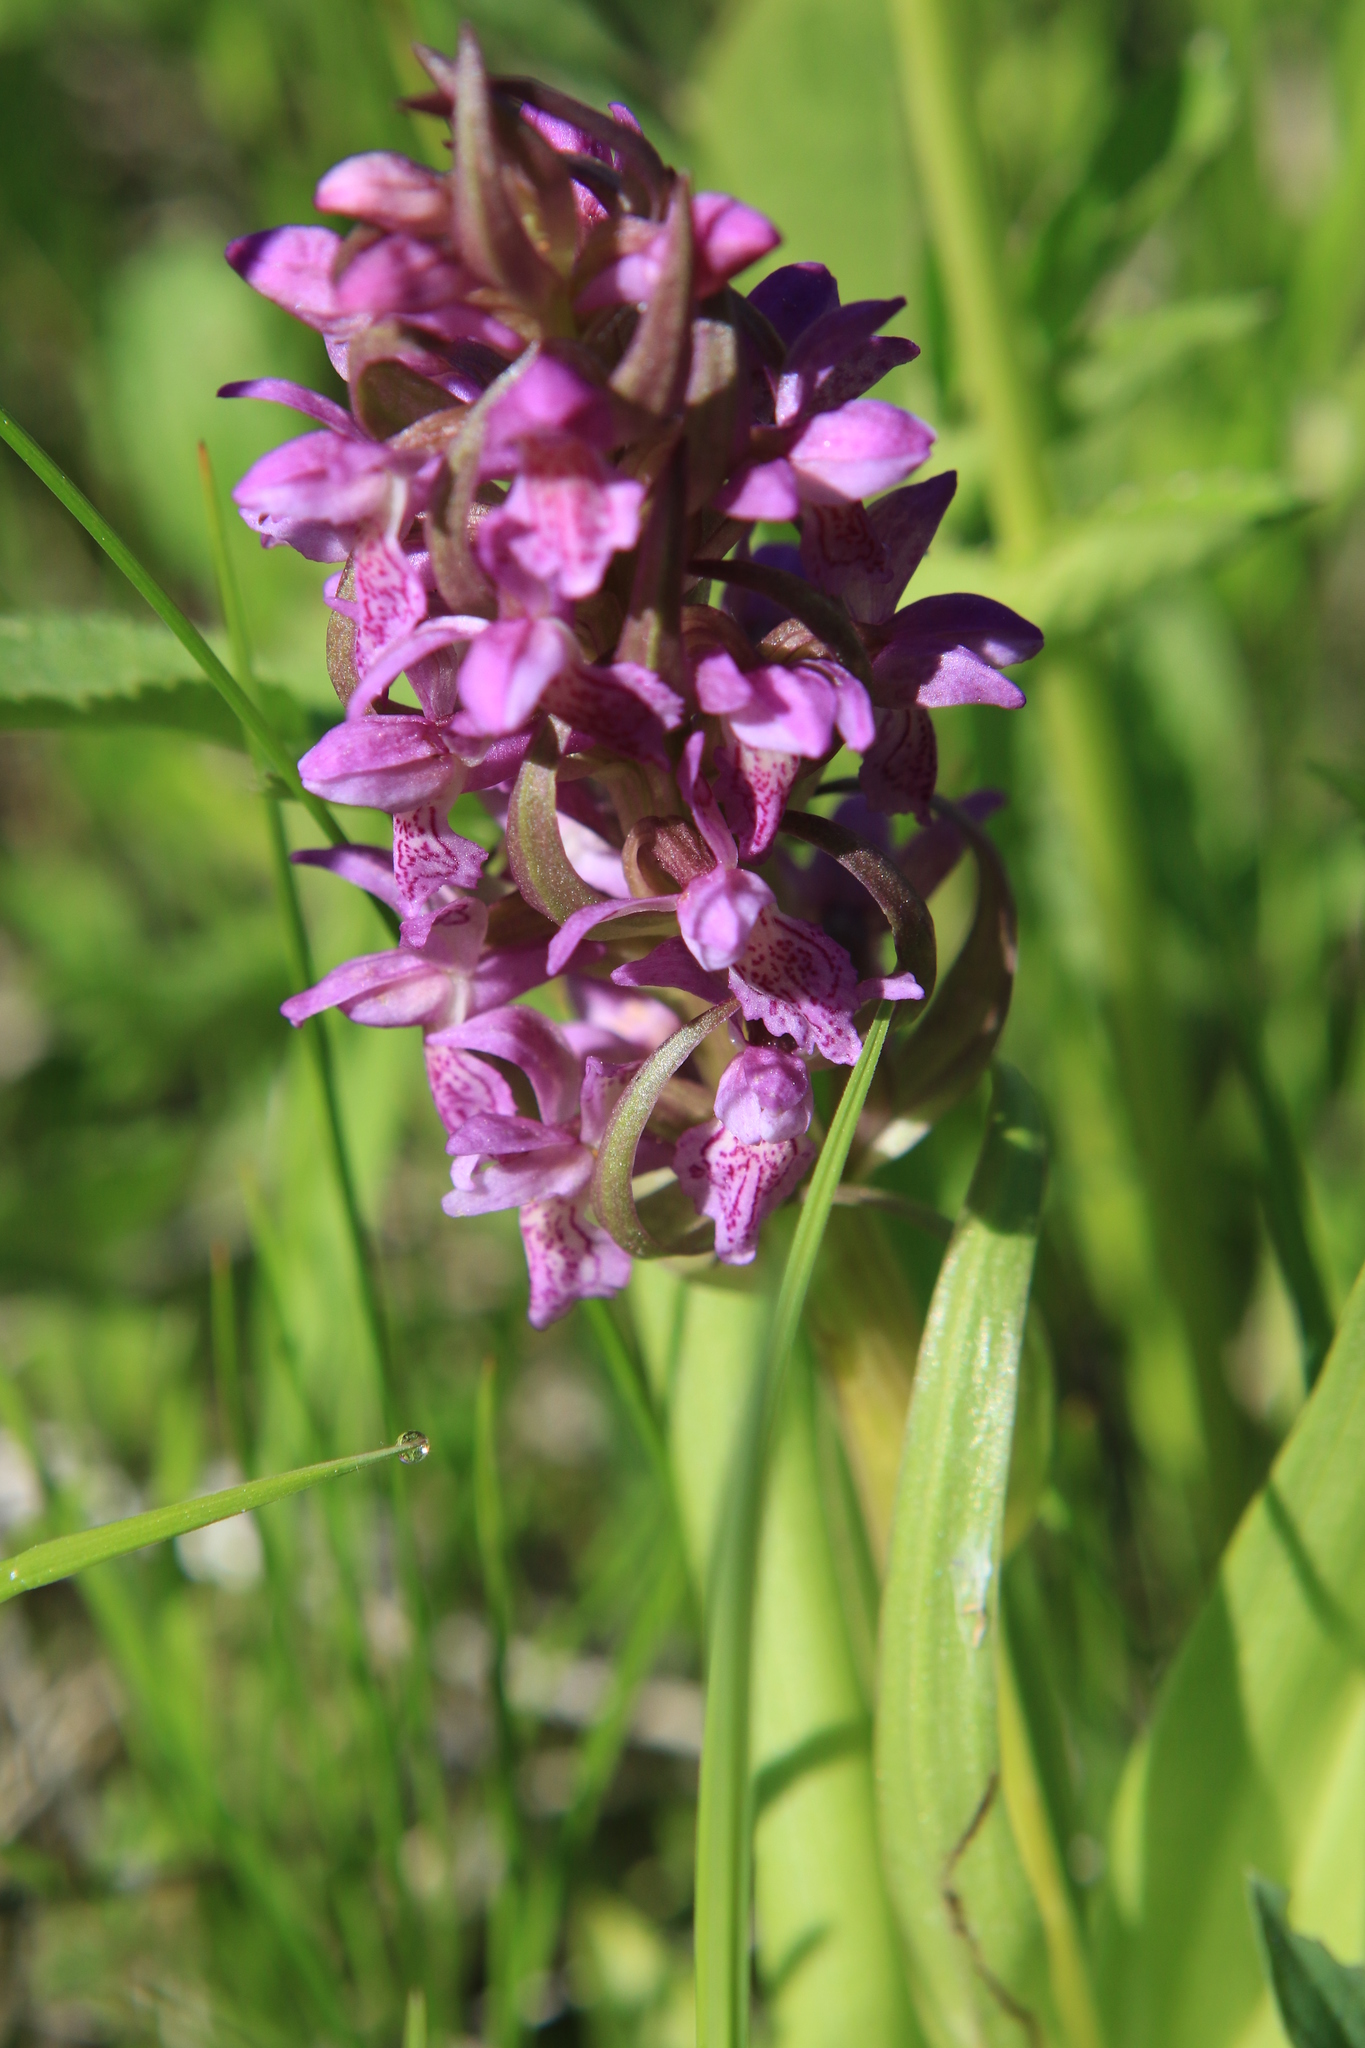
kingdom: Plantae
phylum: Tracheophyta
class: Liliopsida
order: Asparagales
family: Orchidaceae
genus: Dactylorhiza
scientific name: Dactylorhiza incarnata
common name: Early marsh-orchid
